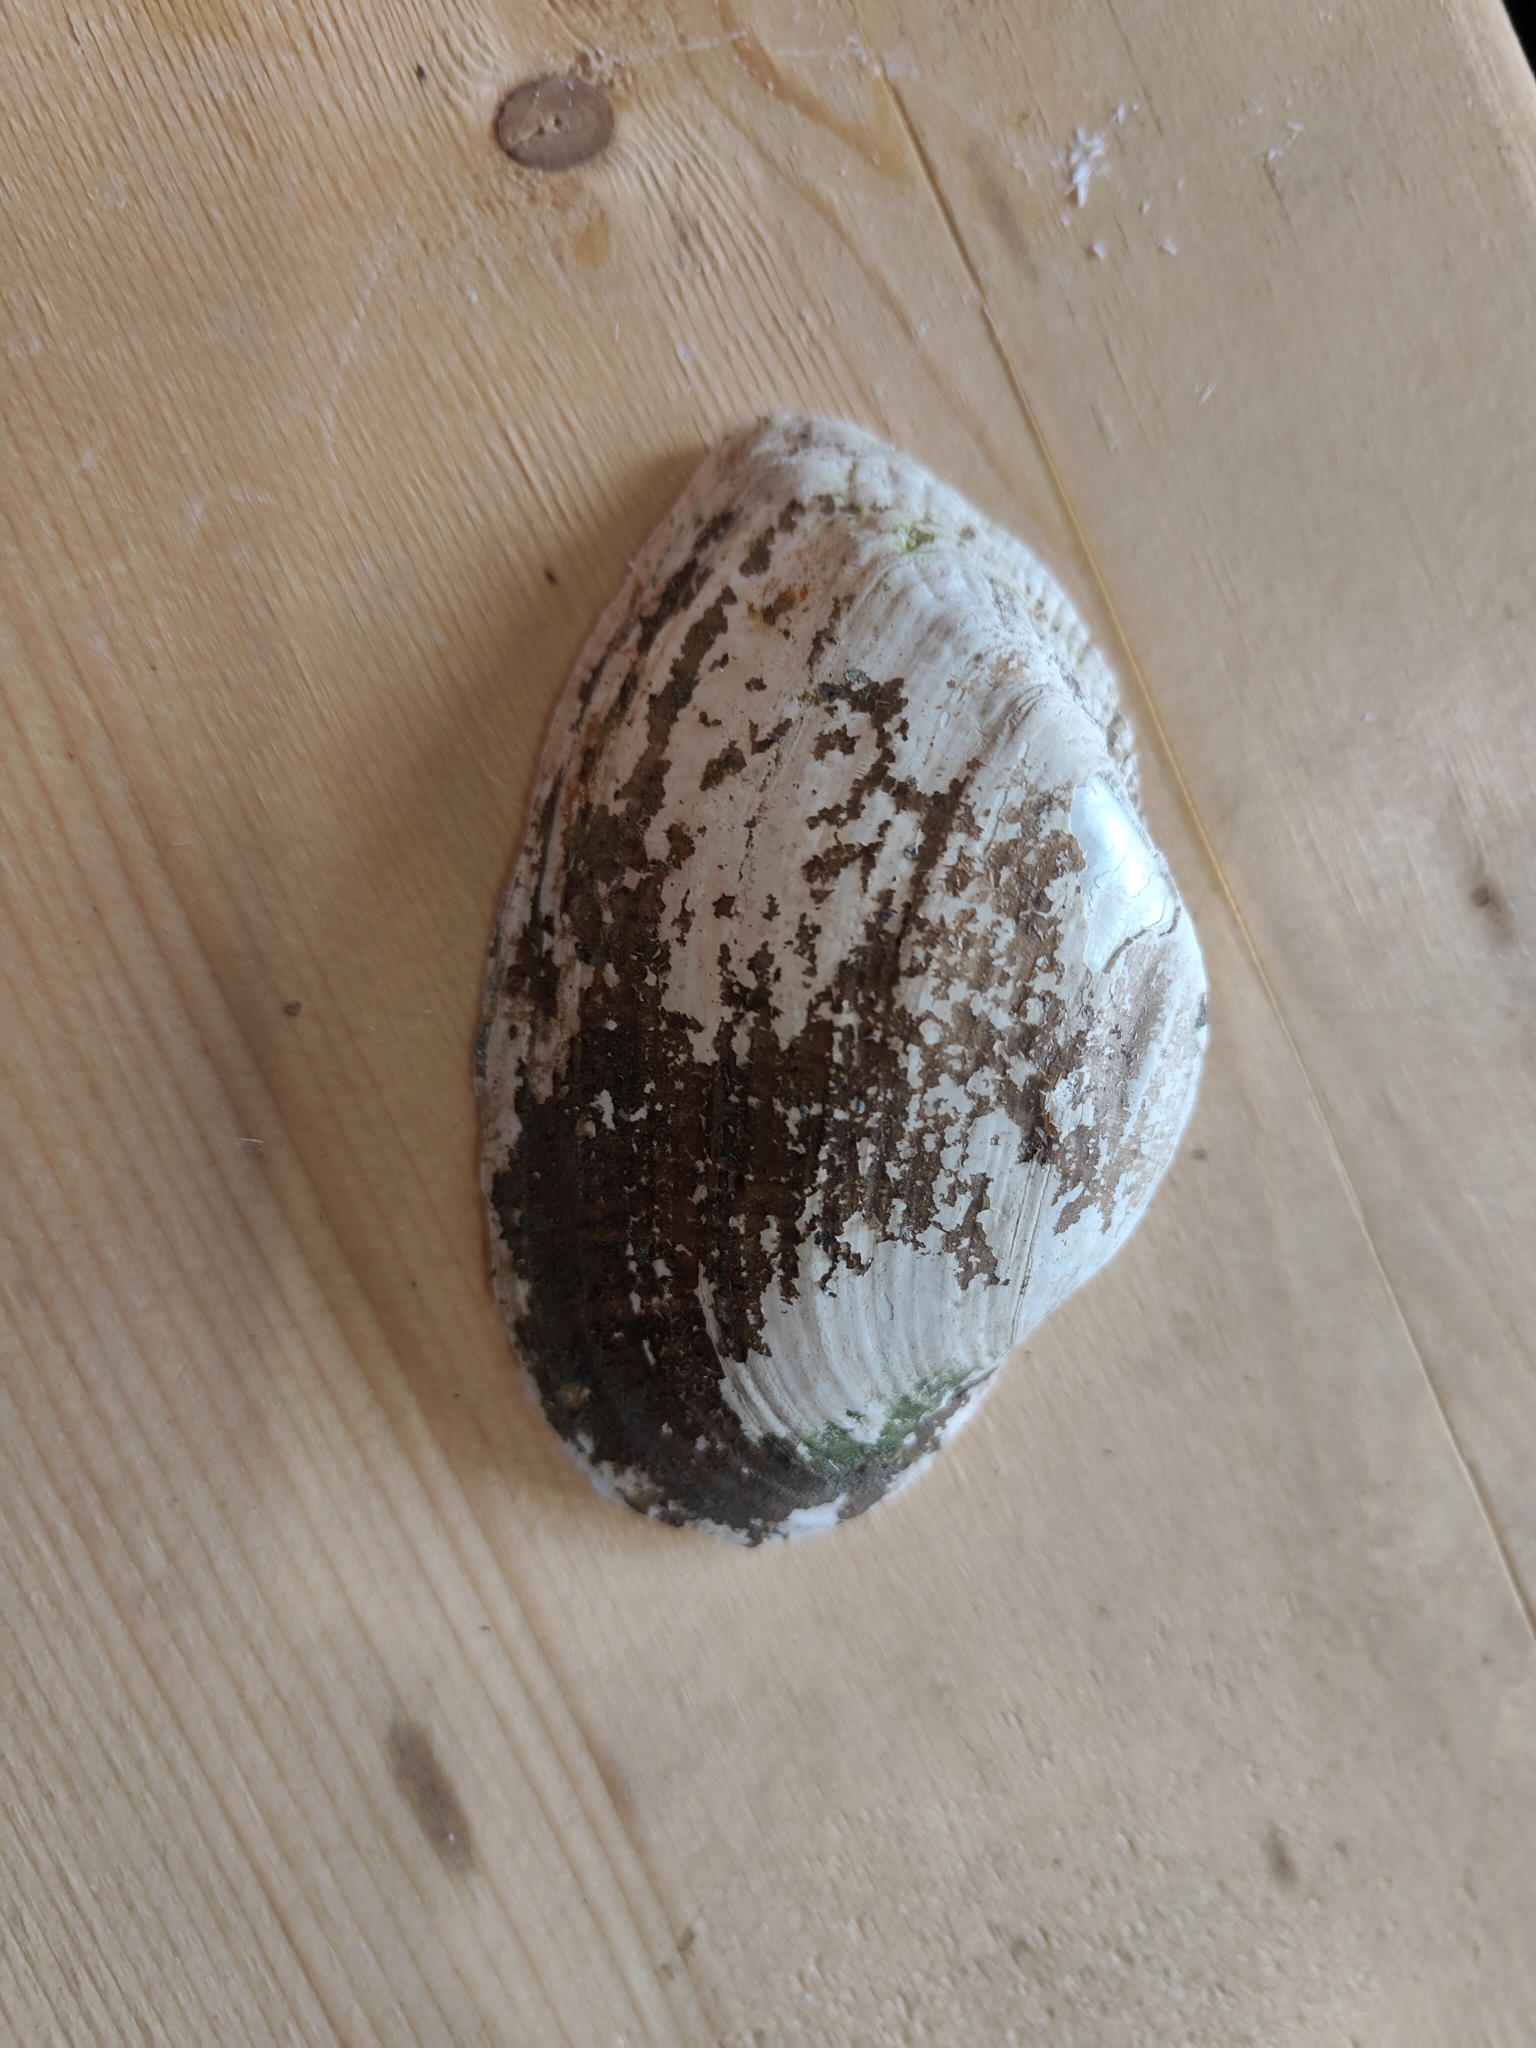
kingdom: Animalia
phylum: Mollusca
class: Bivalvia
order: Unionida
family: Unionidae
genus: Alasmidonta
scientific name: Alasmidonta marginata
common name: Elktoe
